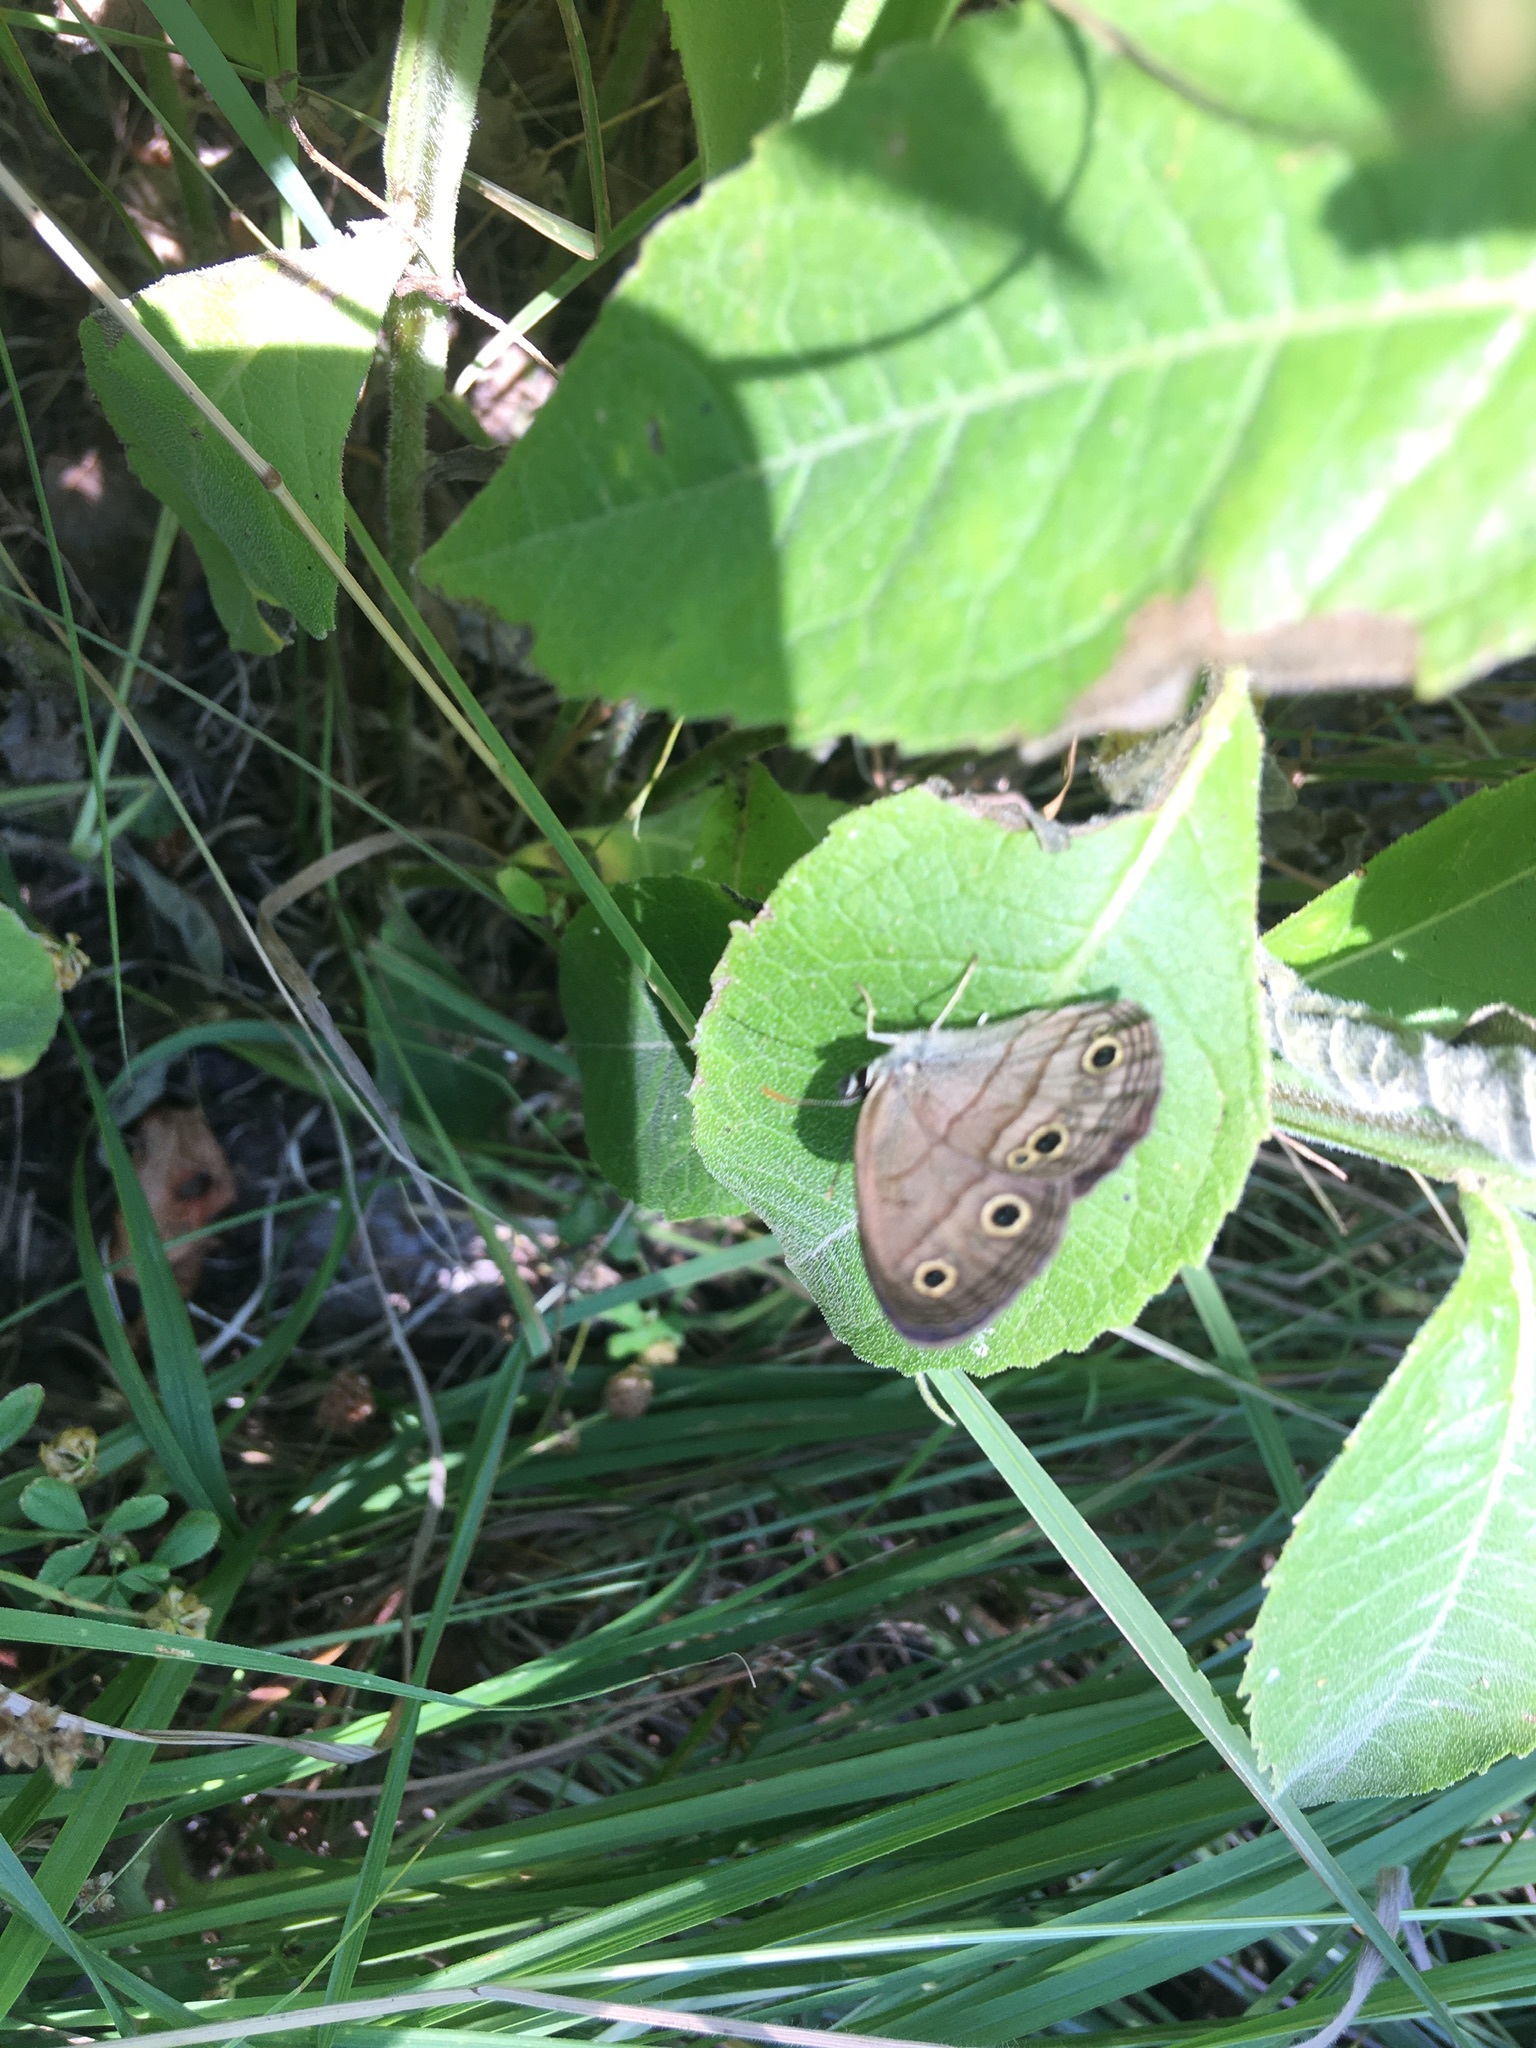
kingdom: Animalia
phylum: Arthropoda
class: Insecta
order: Lepidoptera
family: Nymphalidae
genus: Euptychia
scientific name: Euptychia cymela
